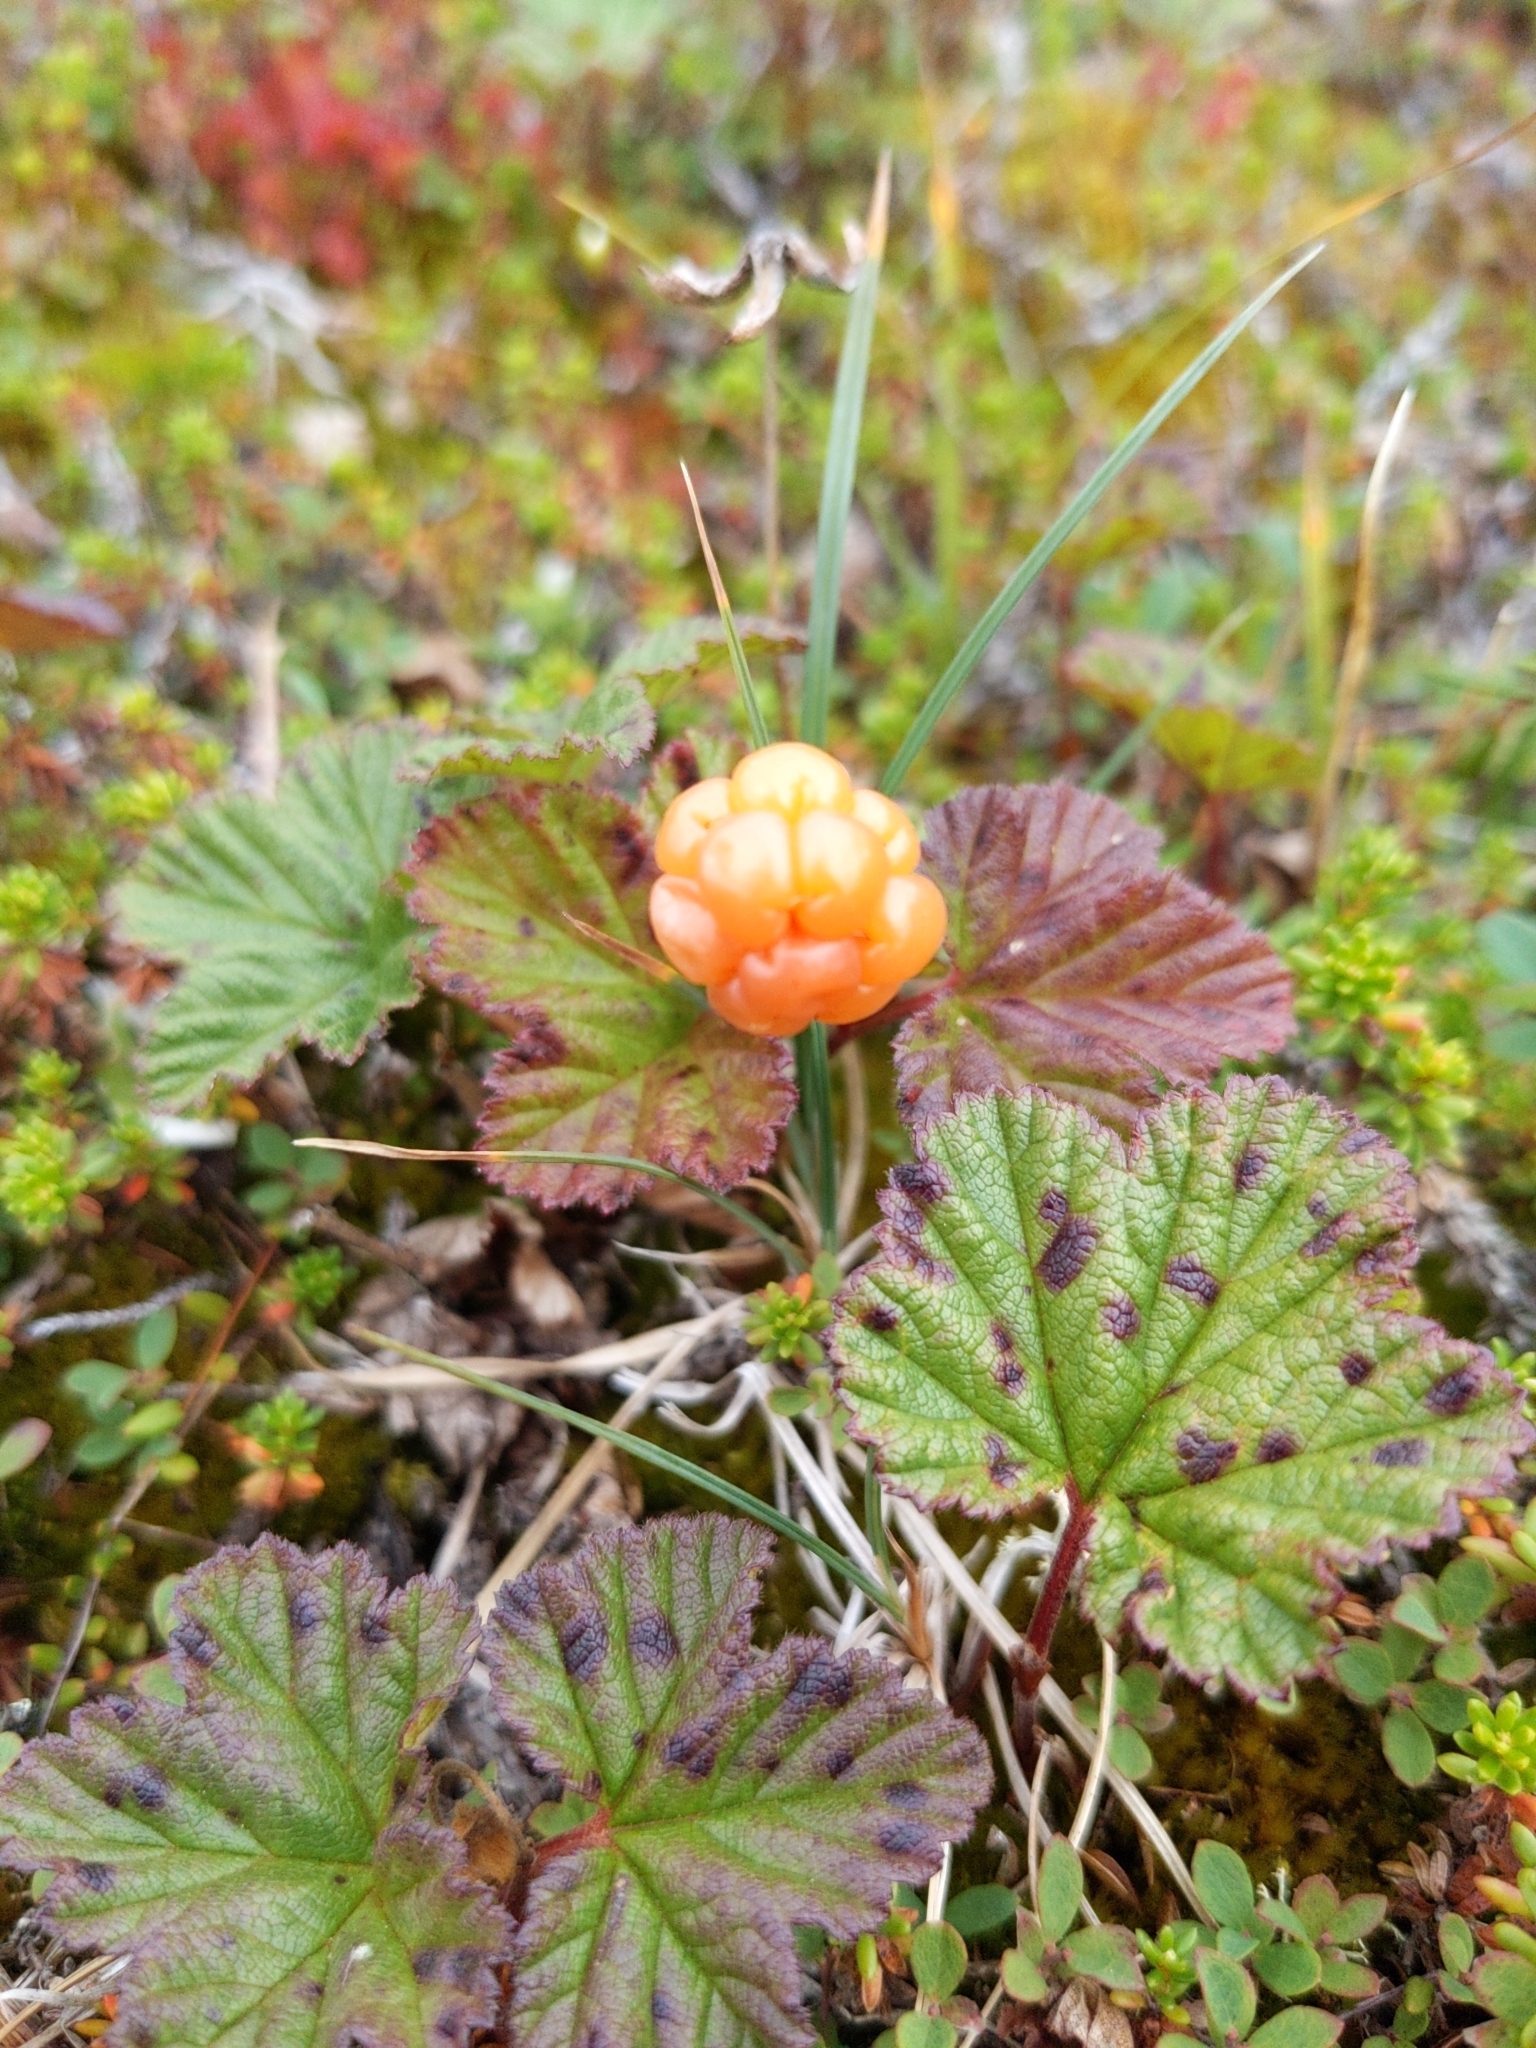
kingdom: Plantae
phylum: Tracheophyta
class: Magnoliopsida
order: Rosales
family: Rosaceae
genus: Rubus
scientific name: Rubus chamaemorus
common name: Cloudberry
